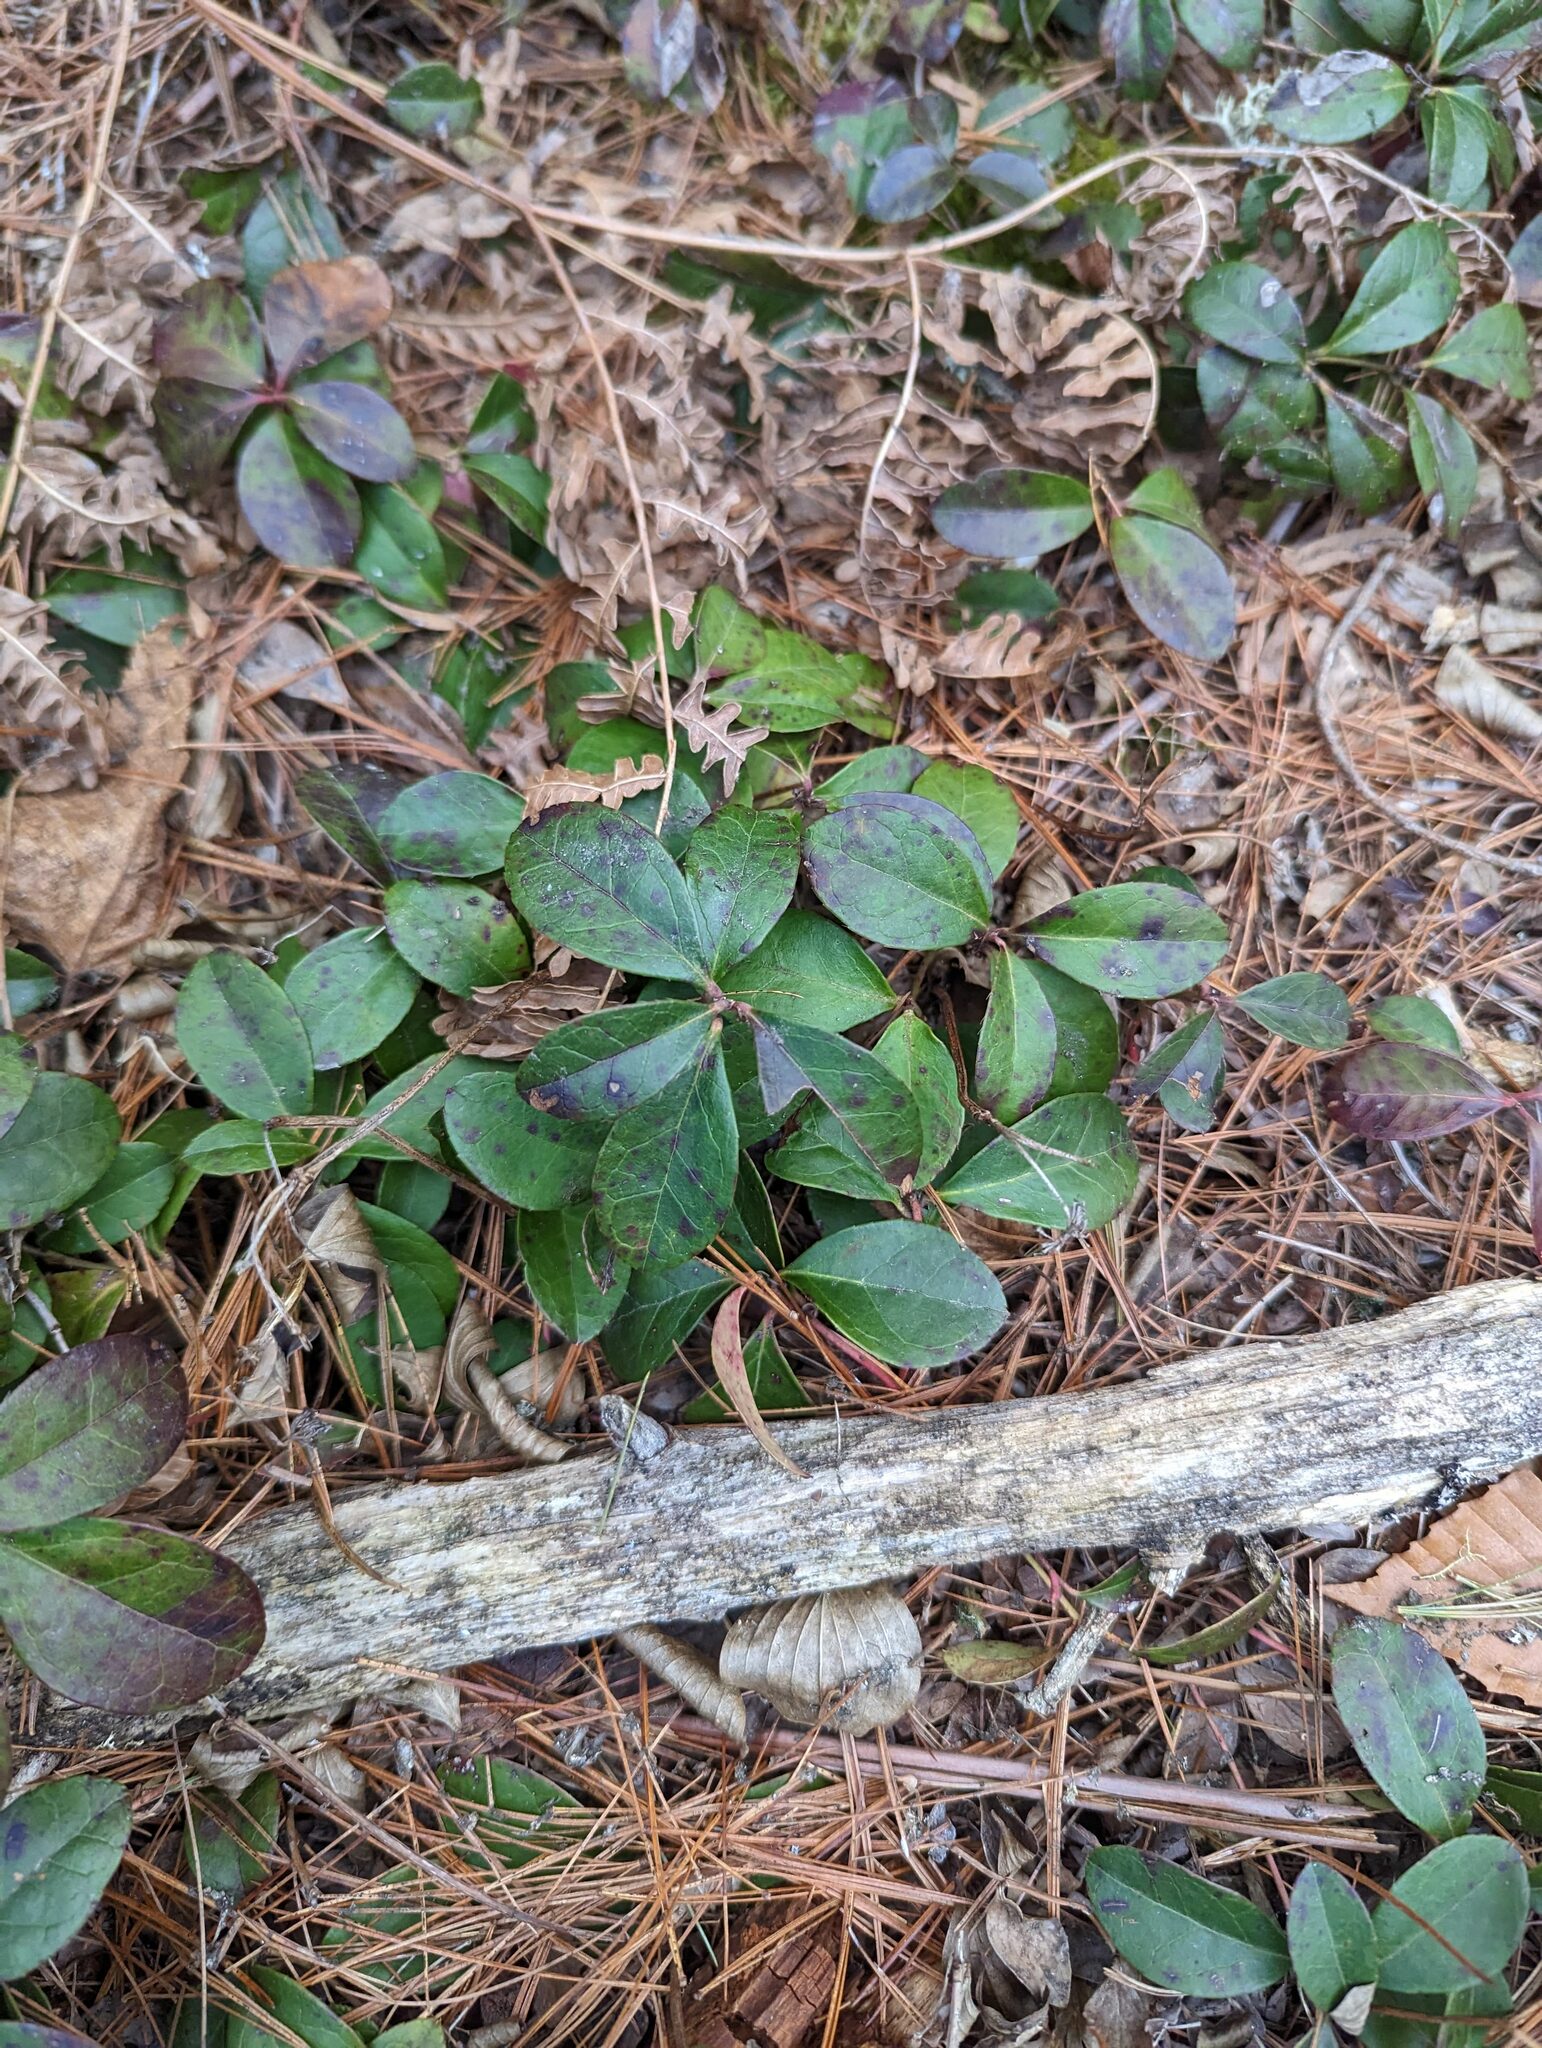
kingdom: Plantae
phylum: Tracheophyta
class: Magnoliopsida
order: Ericales
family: Ericaceae
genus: Gaultheria
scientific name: Gaultheria procumbens
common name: Checkerberry
